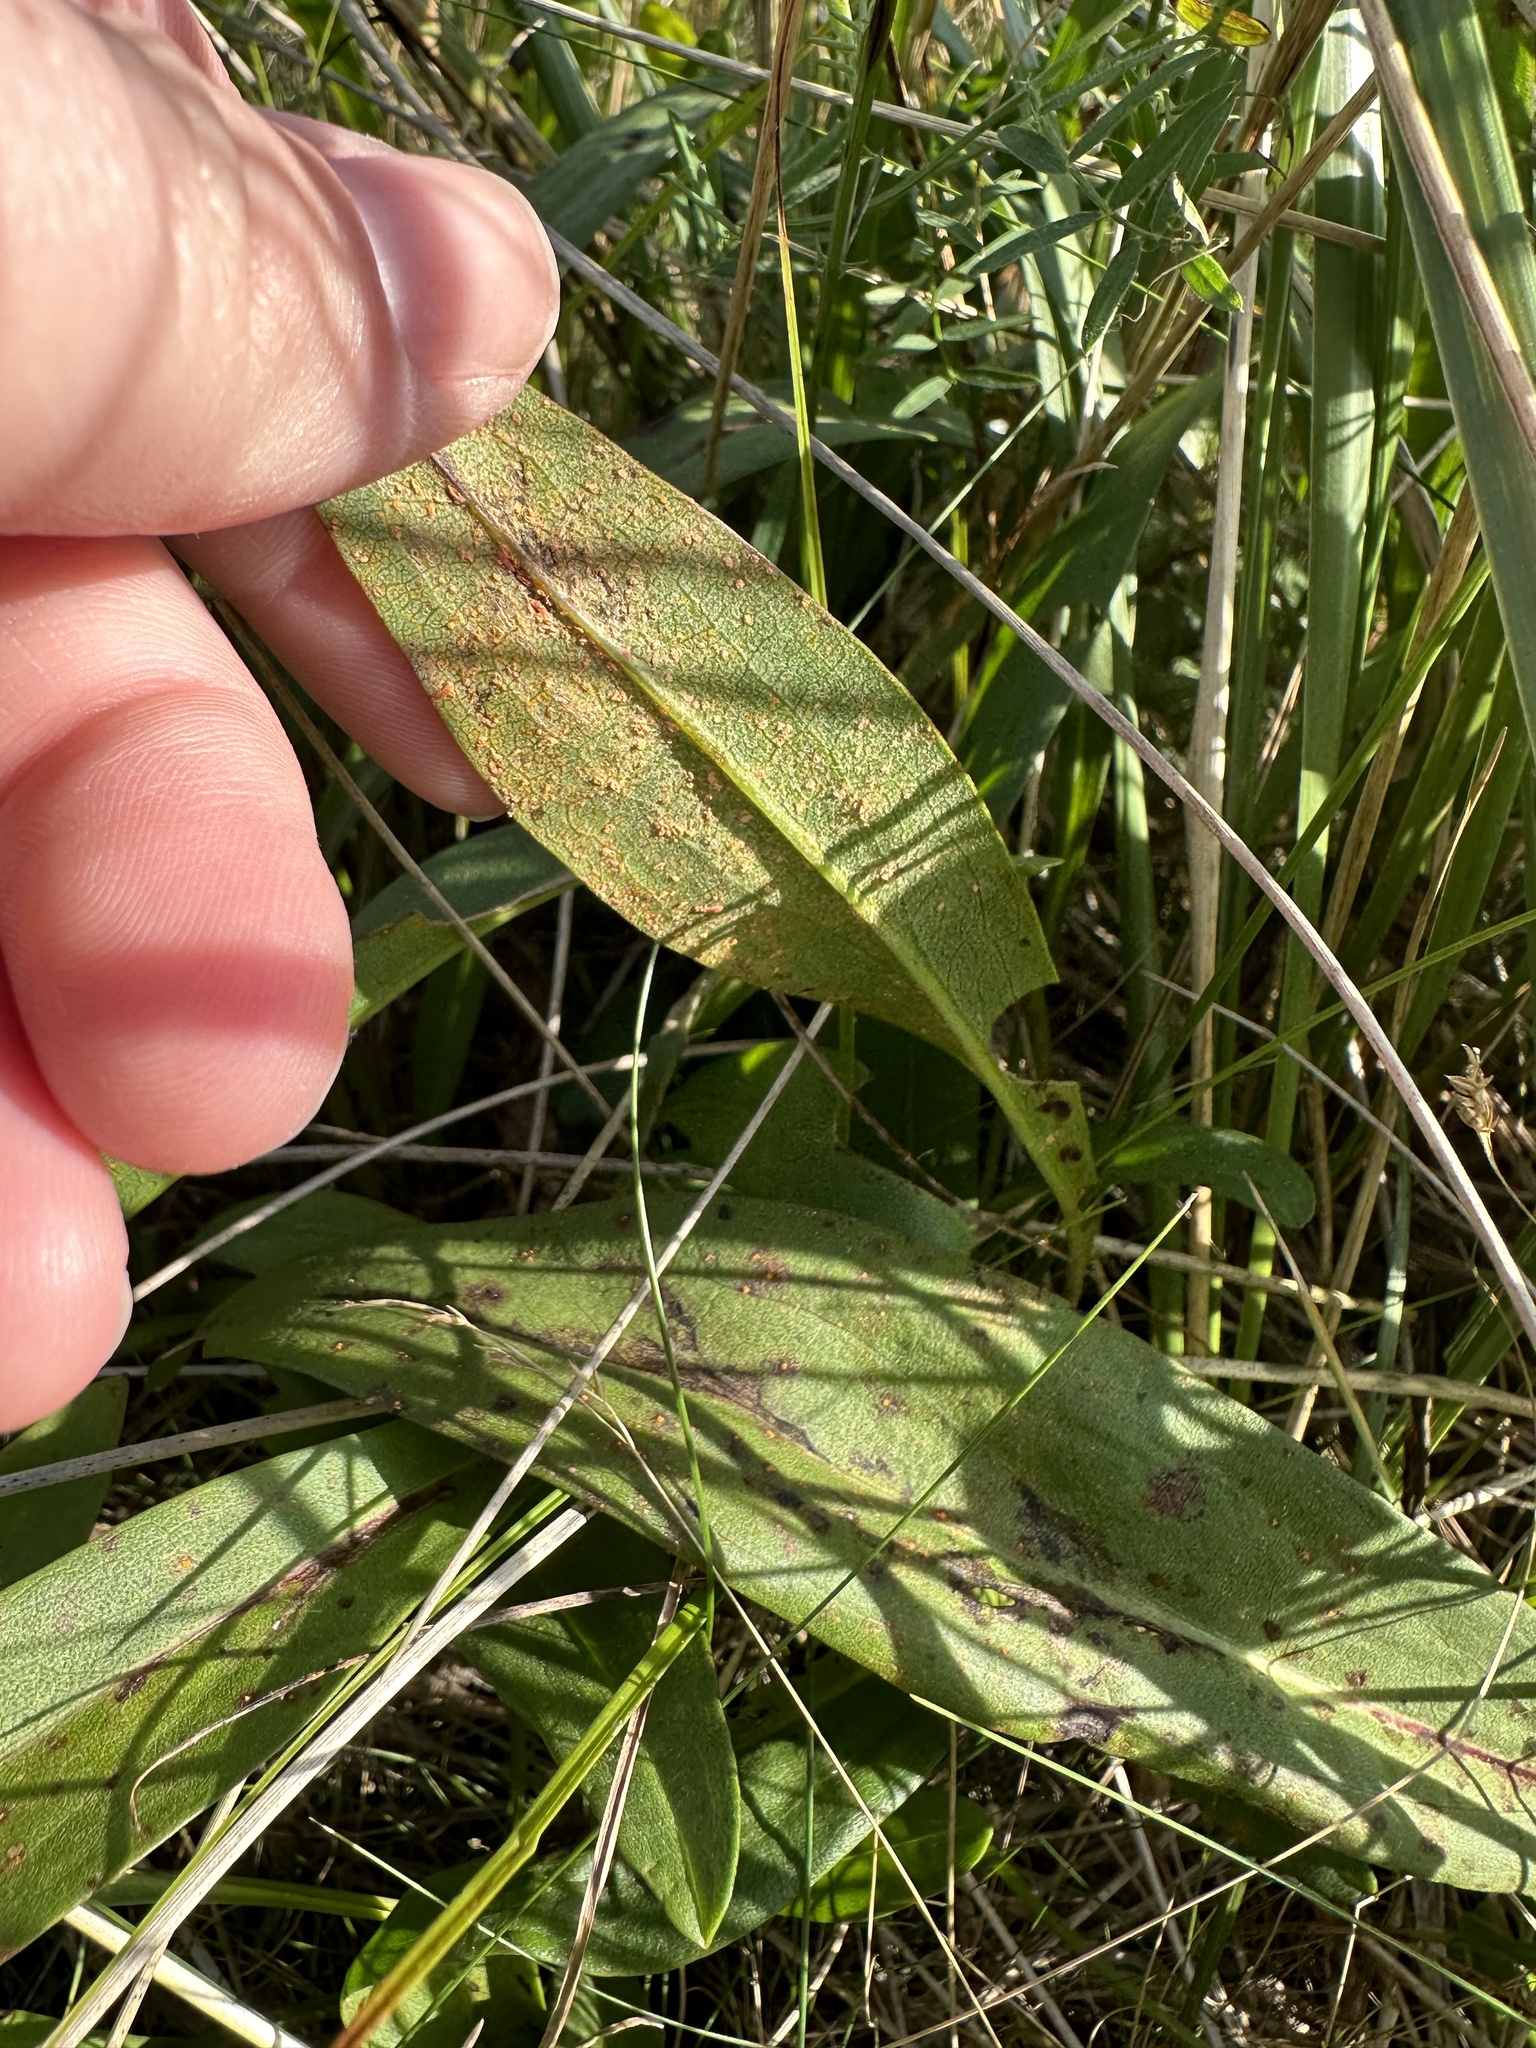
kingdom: Fungi
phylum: Basidiomycota
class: Pucciniomycetes
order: Pucciniales
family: Coleosporiaceae
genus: Coleosporium
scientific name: Coleosporium asterum
